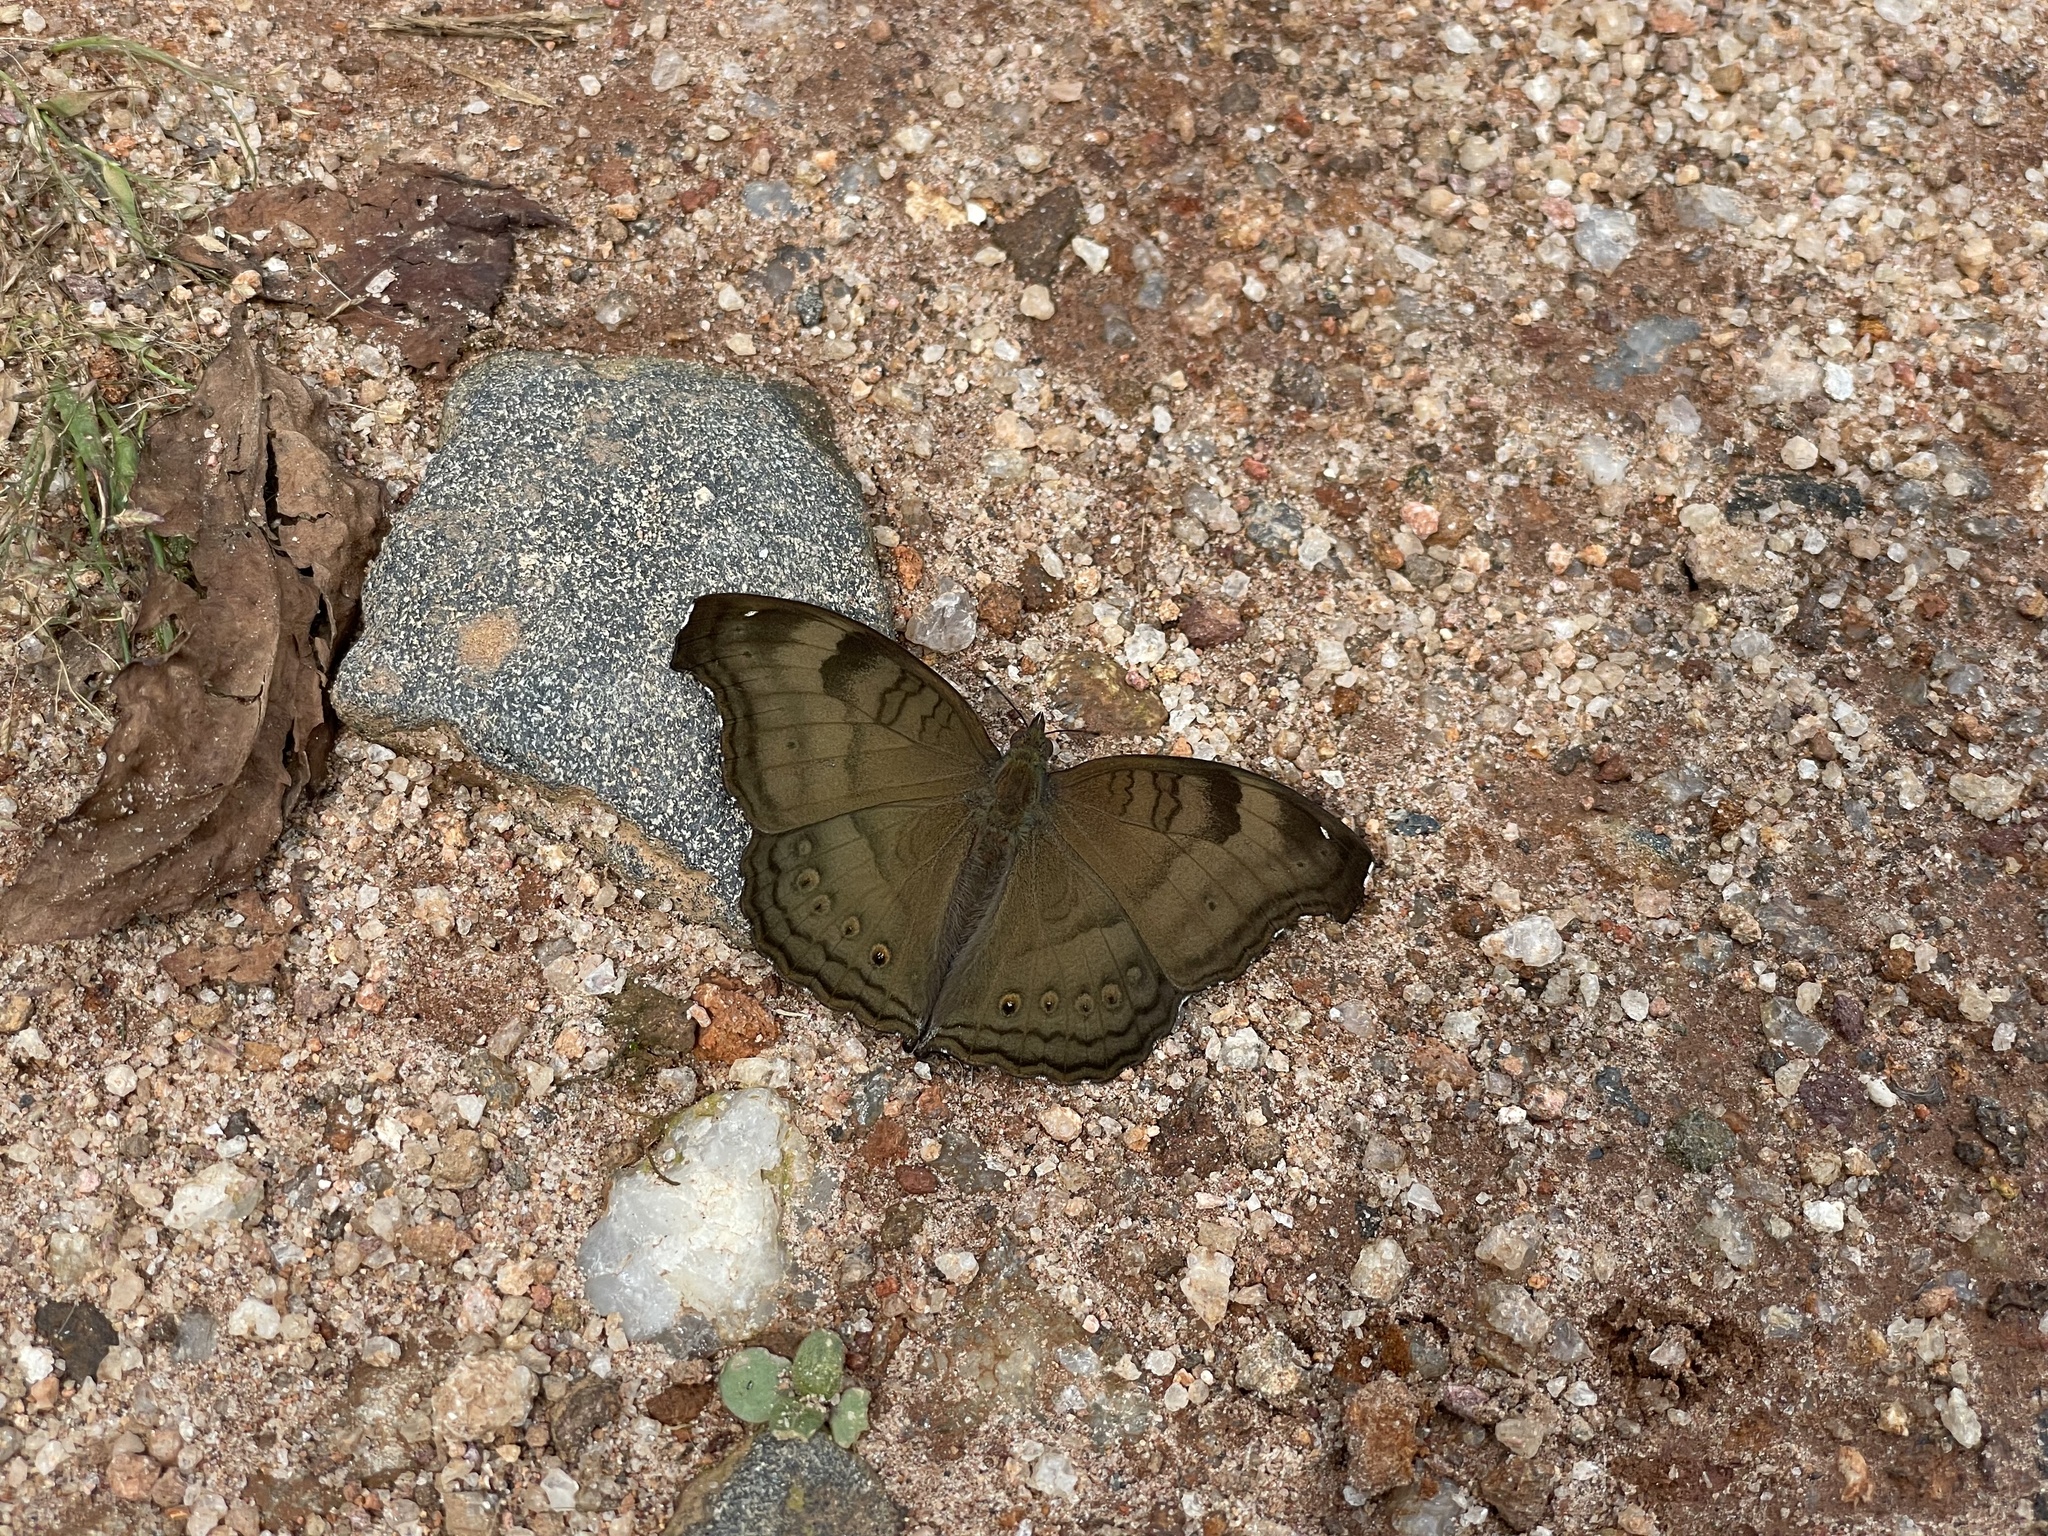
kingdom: Animalia
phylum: Arthropoda
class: Insecta
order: Lepidoptera
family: Nymphalidae
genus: Junonia
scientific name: Junonia iphita
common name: Chocolate pansy
